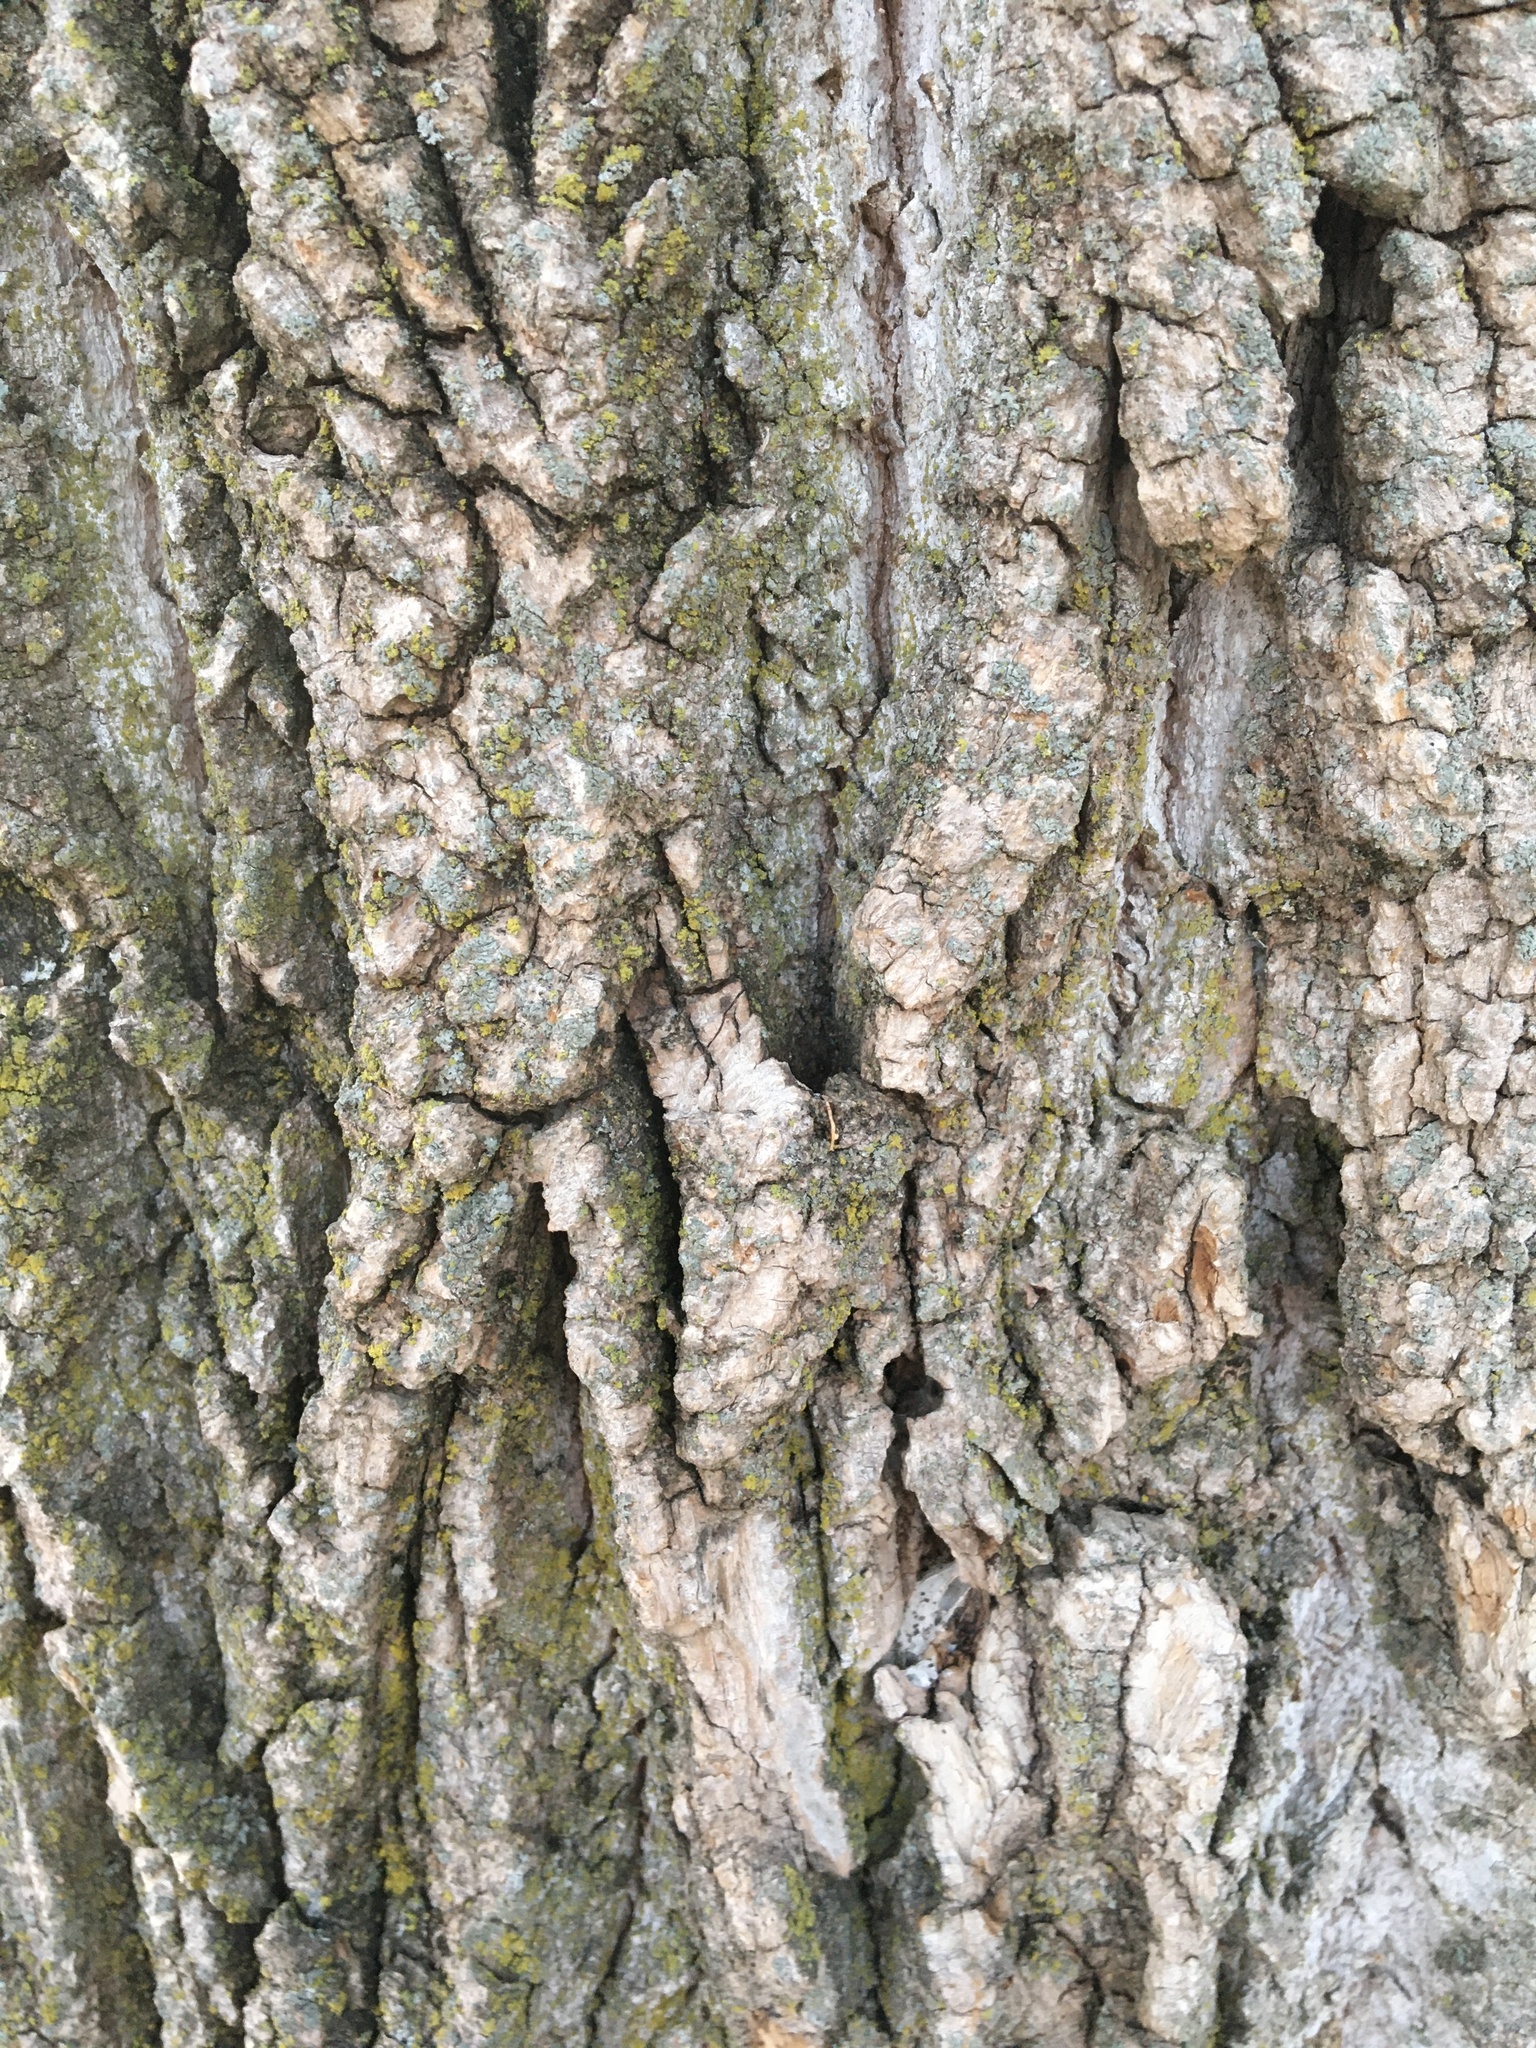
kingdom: Plantae
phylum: Tracheophyta
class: Magnoliopsida
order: Magnoliales
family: Magnoliaceae
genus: Liriodendron
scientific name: Liriodendron tulipifera
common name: Tulip tree
